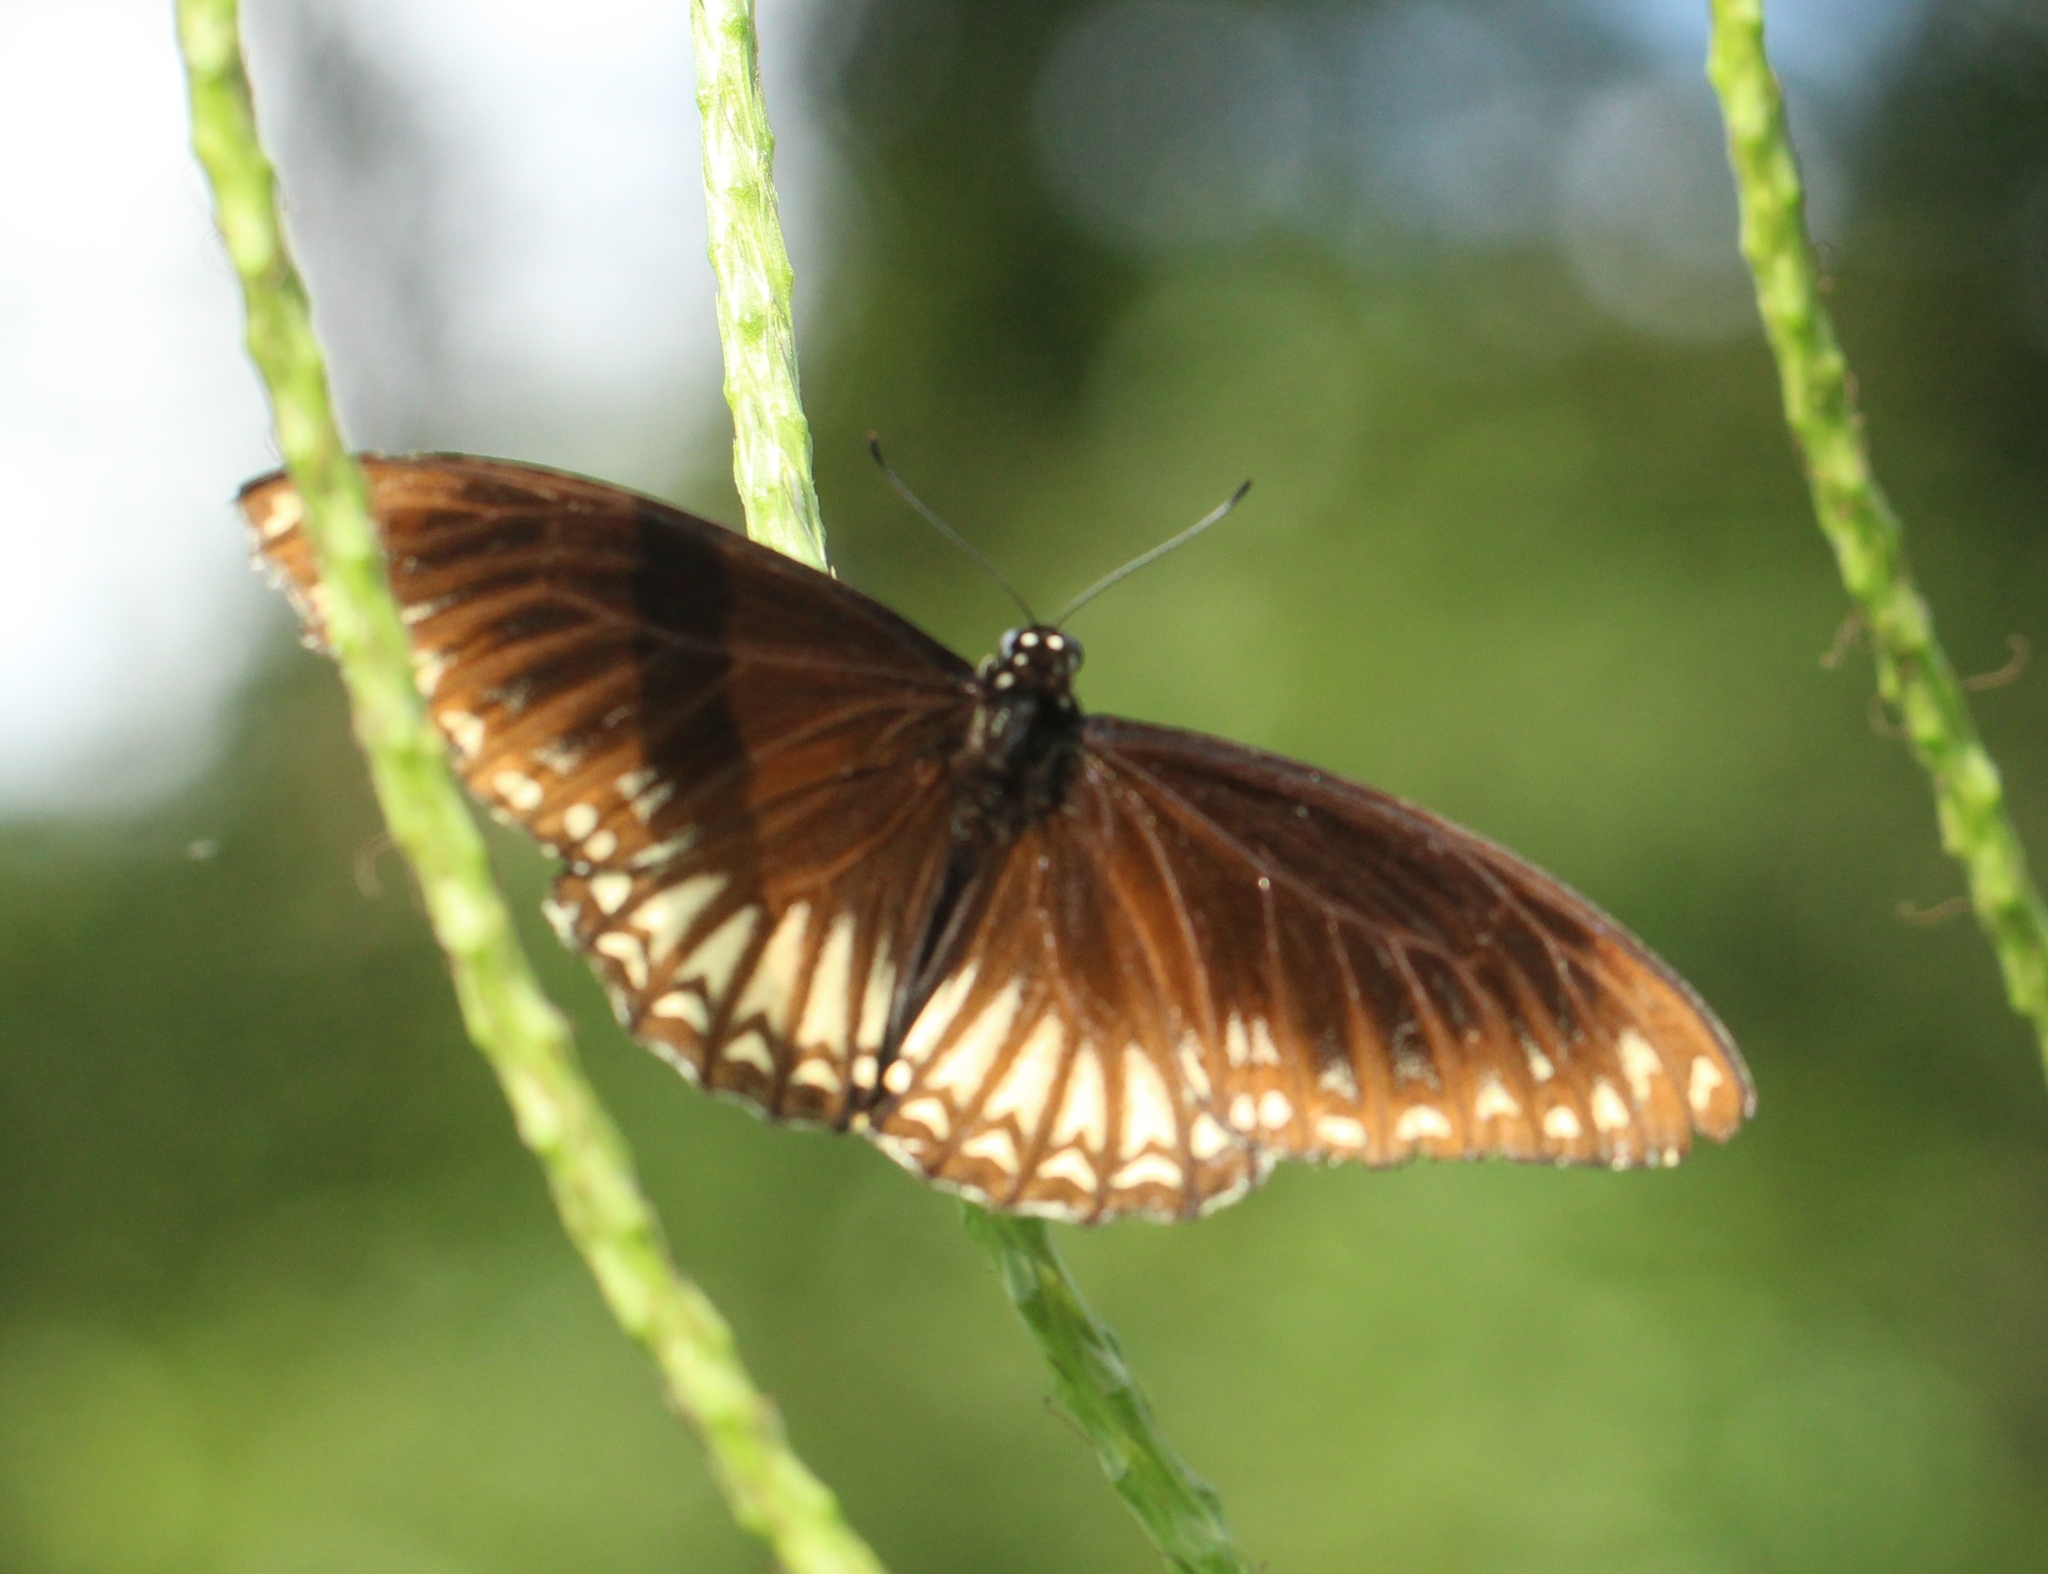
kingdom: Animalia
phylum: Arthropoda
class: Insecta
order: Lepidoptera
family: Papilionidae
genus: Chilasa
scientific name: Chilasa clytia
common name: Common mime
